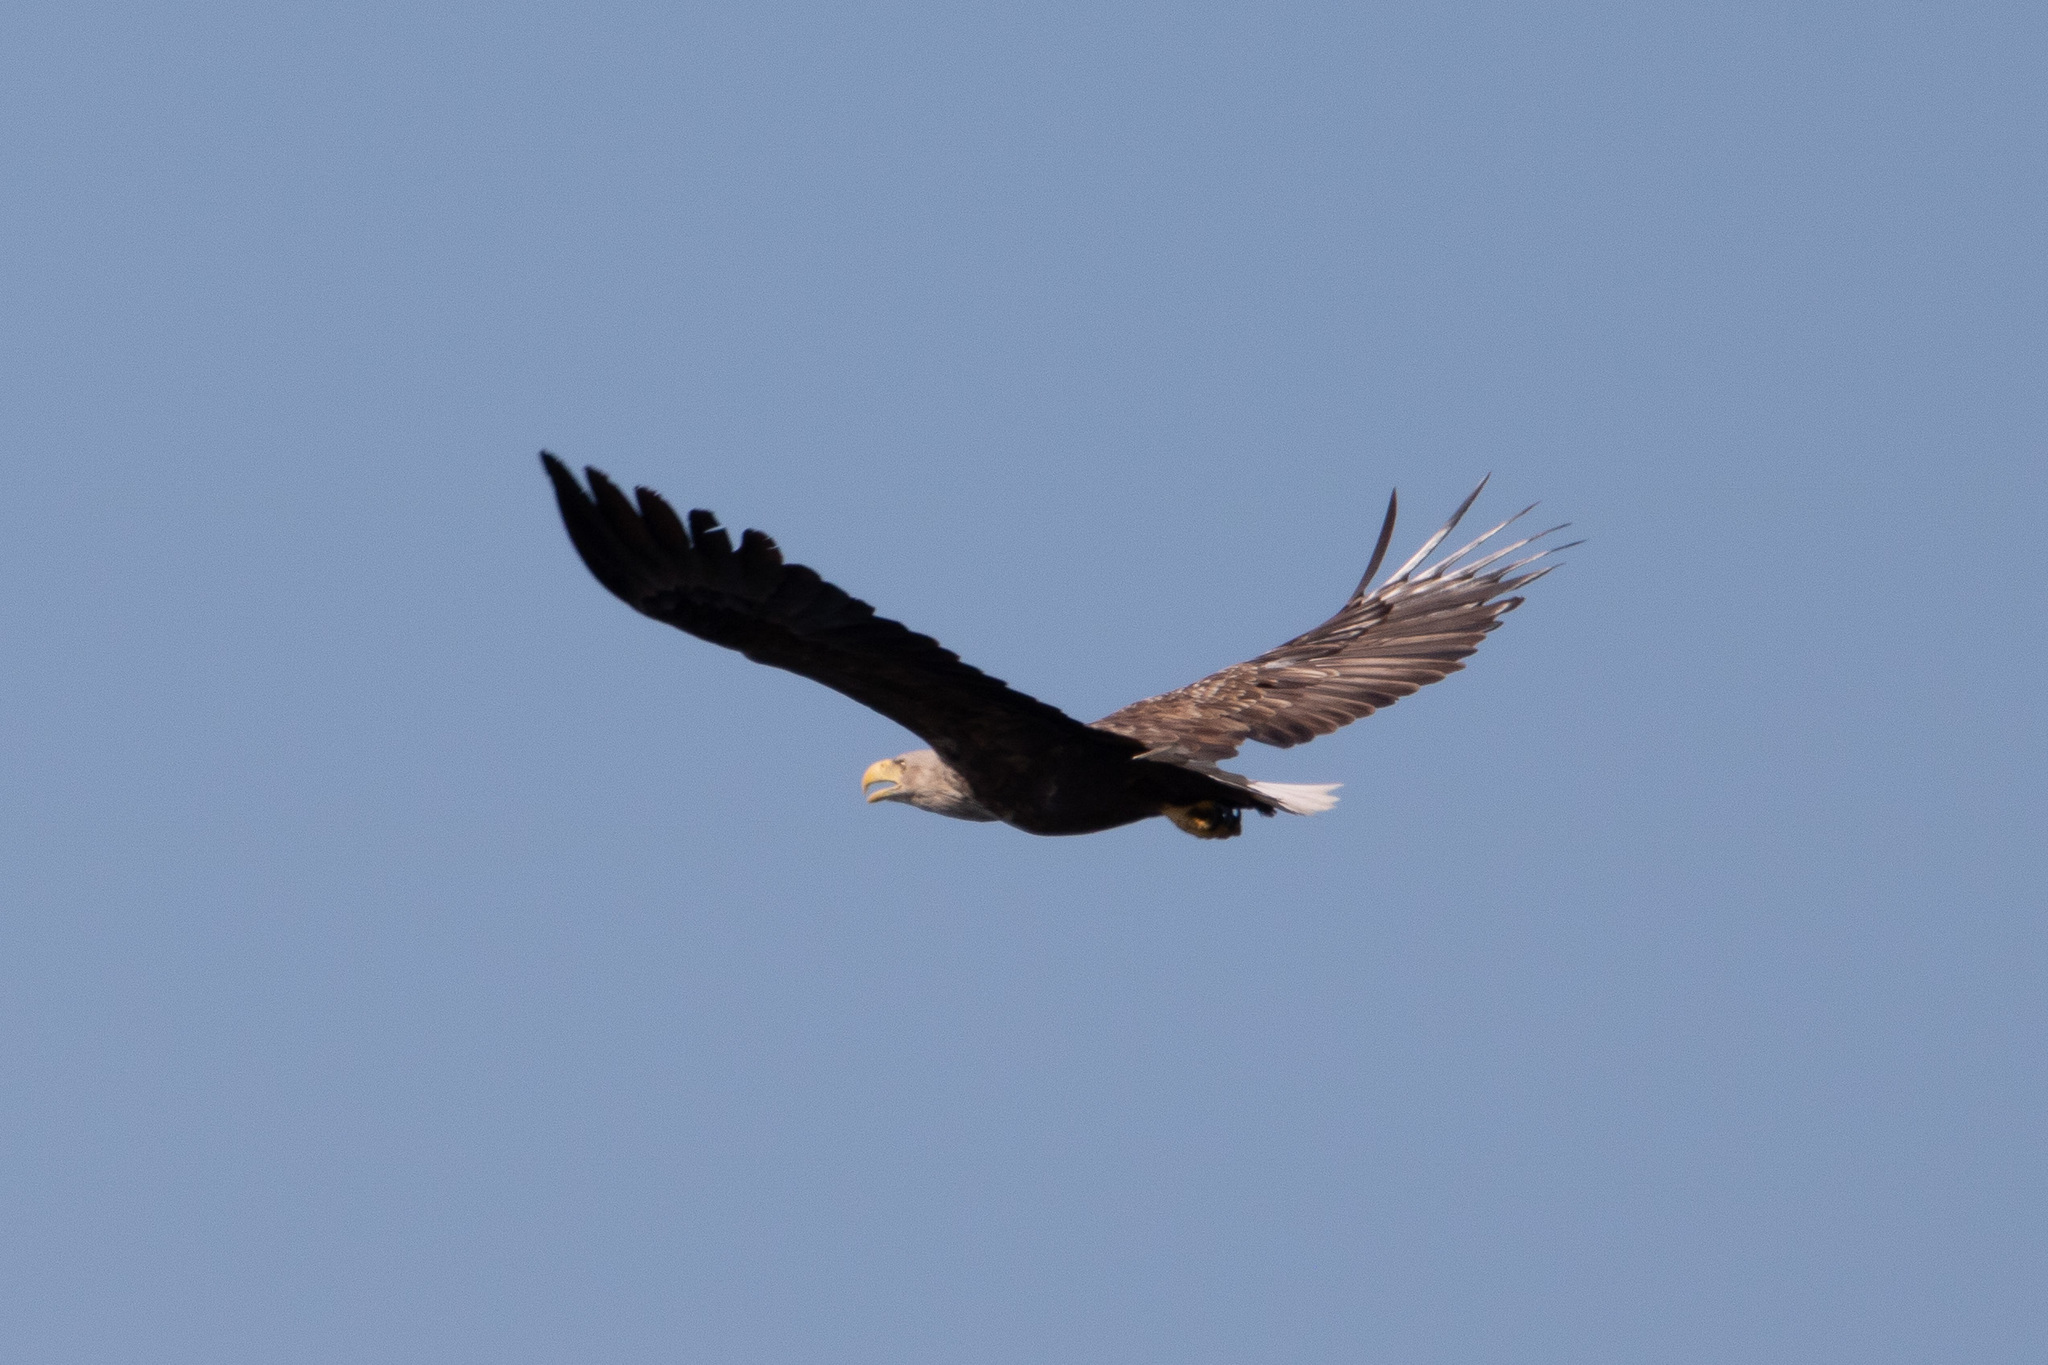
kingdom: Animalia
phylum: Chordata
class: Aves
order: Accipitriformes
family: Accipitridae
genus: Haliaeetus
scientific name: Haliaeetus albicilla
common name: White-tailed eagle
